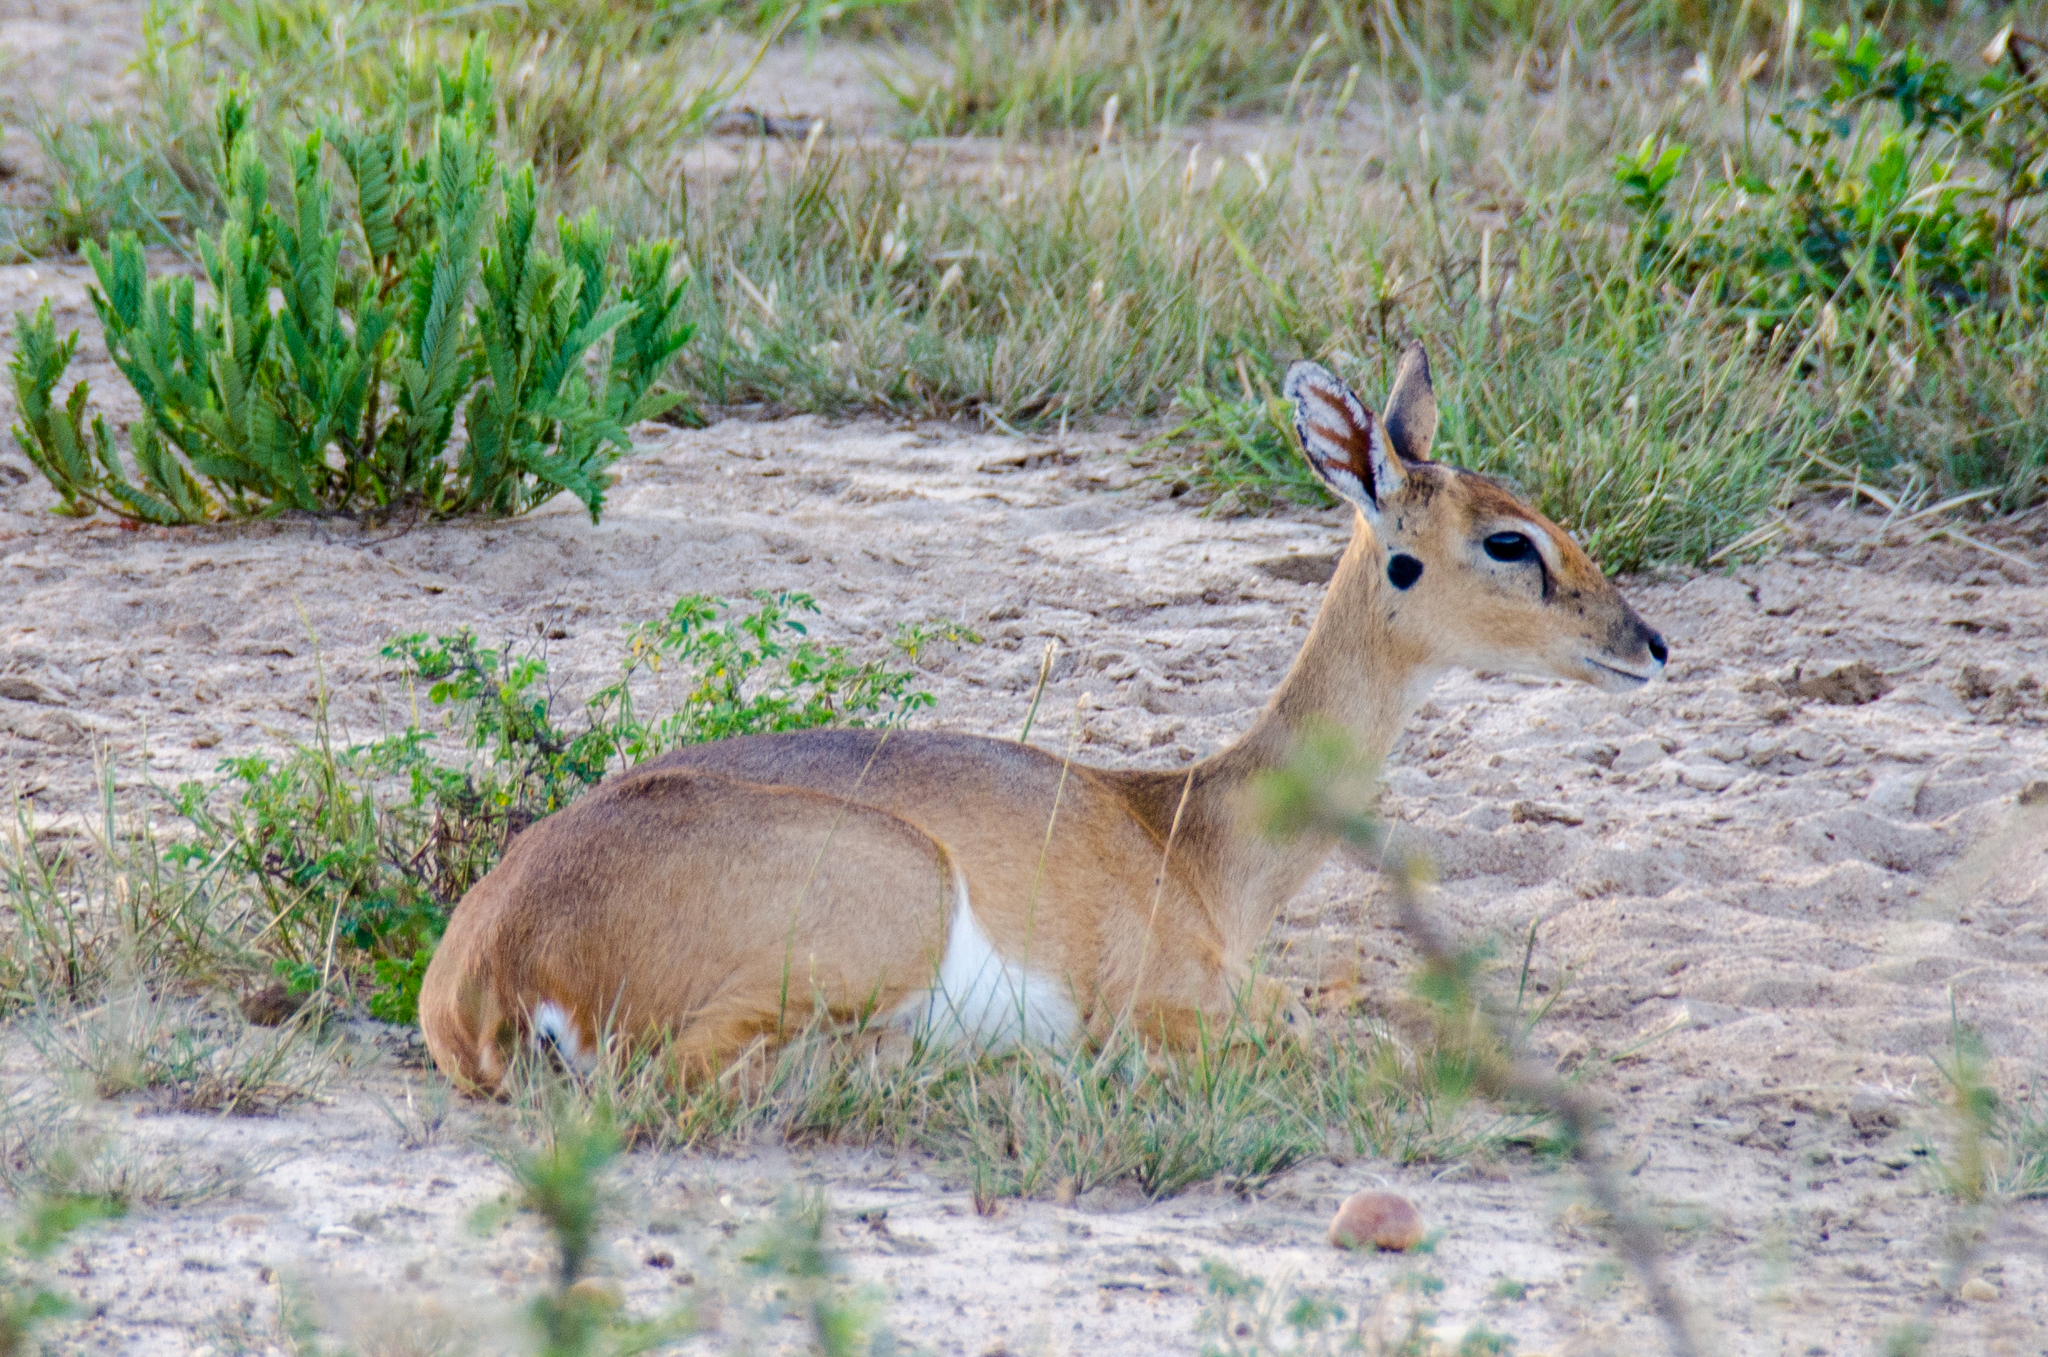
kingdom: Animalia
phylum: Chordata
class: Mammalia
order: Artiodactyla
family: Bovidae
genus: Ourebia
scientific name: Ourebia ourebi
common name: Oribi
